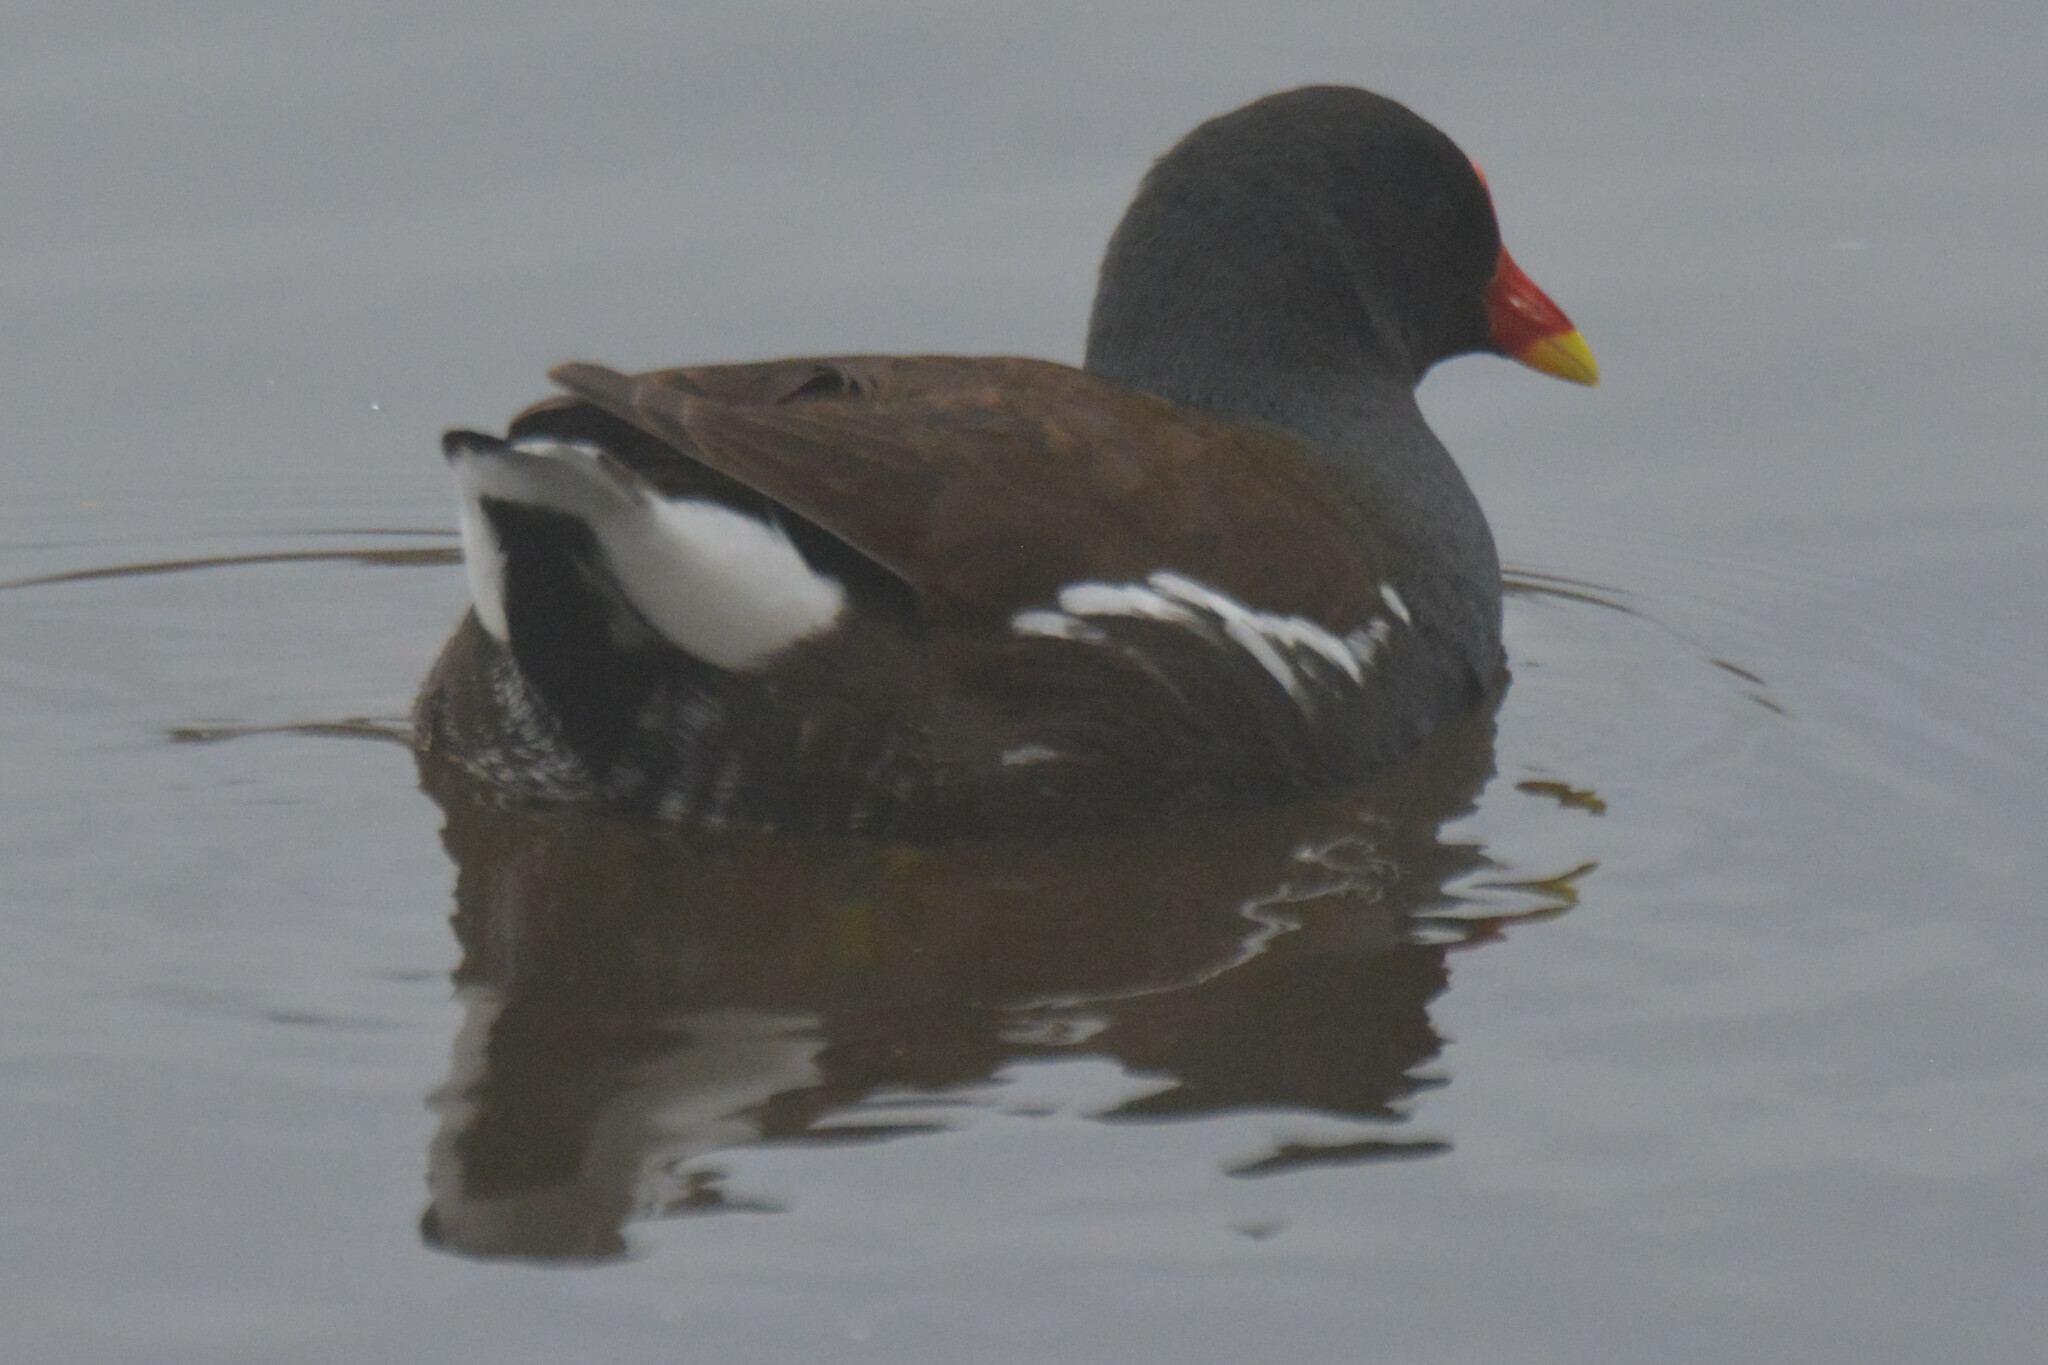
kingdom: Animalia
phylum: Chordata
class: Aves
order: Gruiformes
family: Rallidae
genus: Gallinula
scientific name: Gallinula chloropus
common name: Common moorhen
